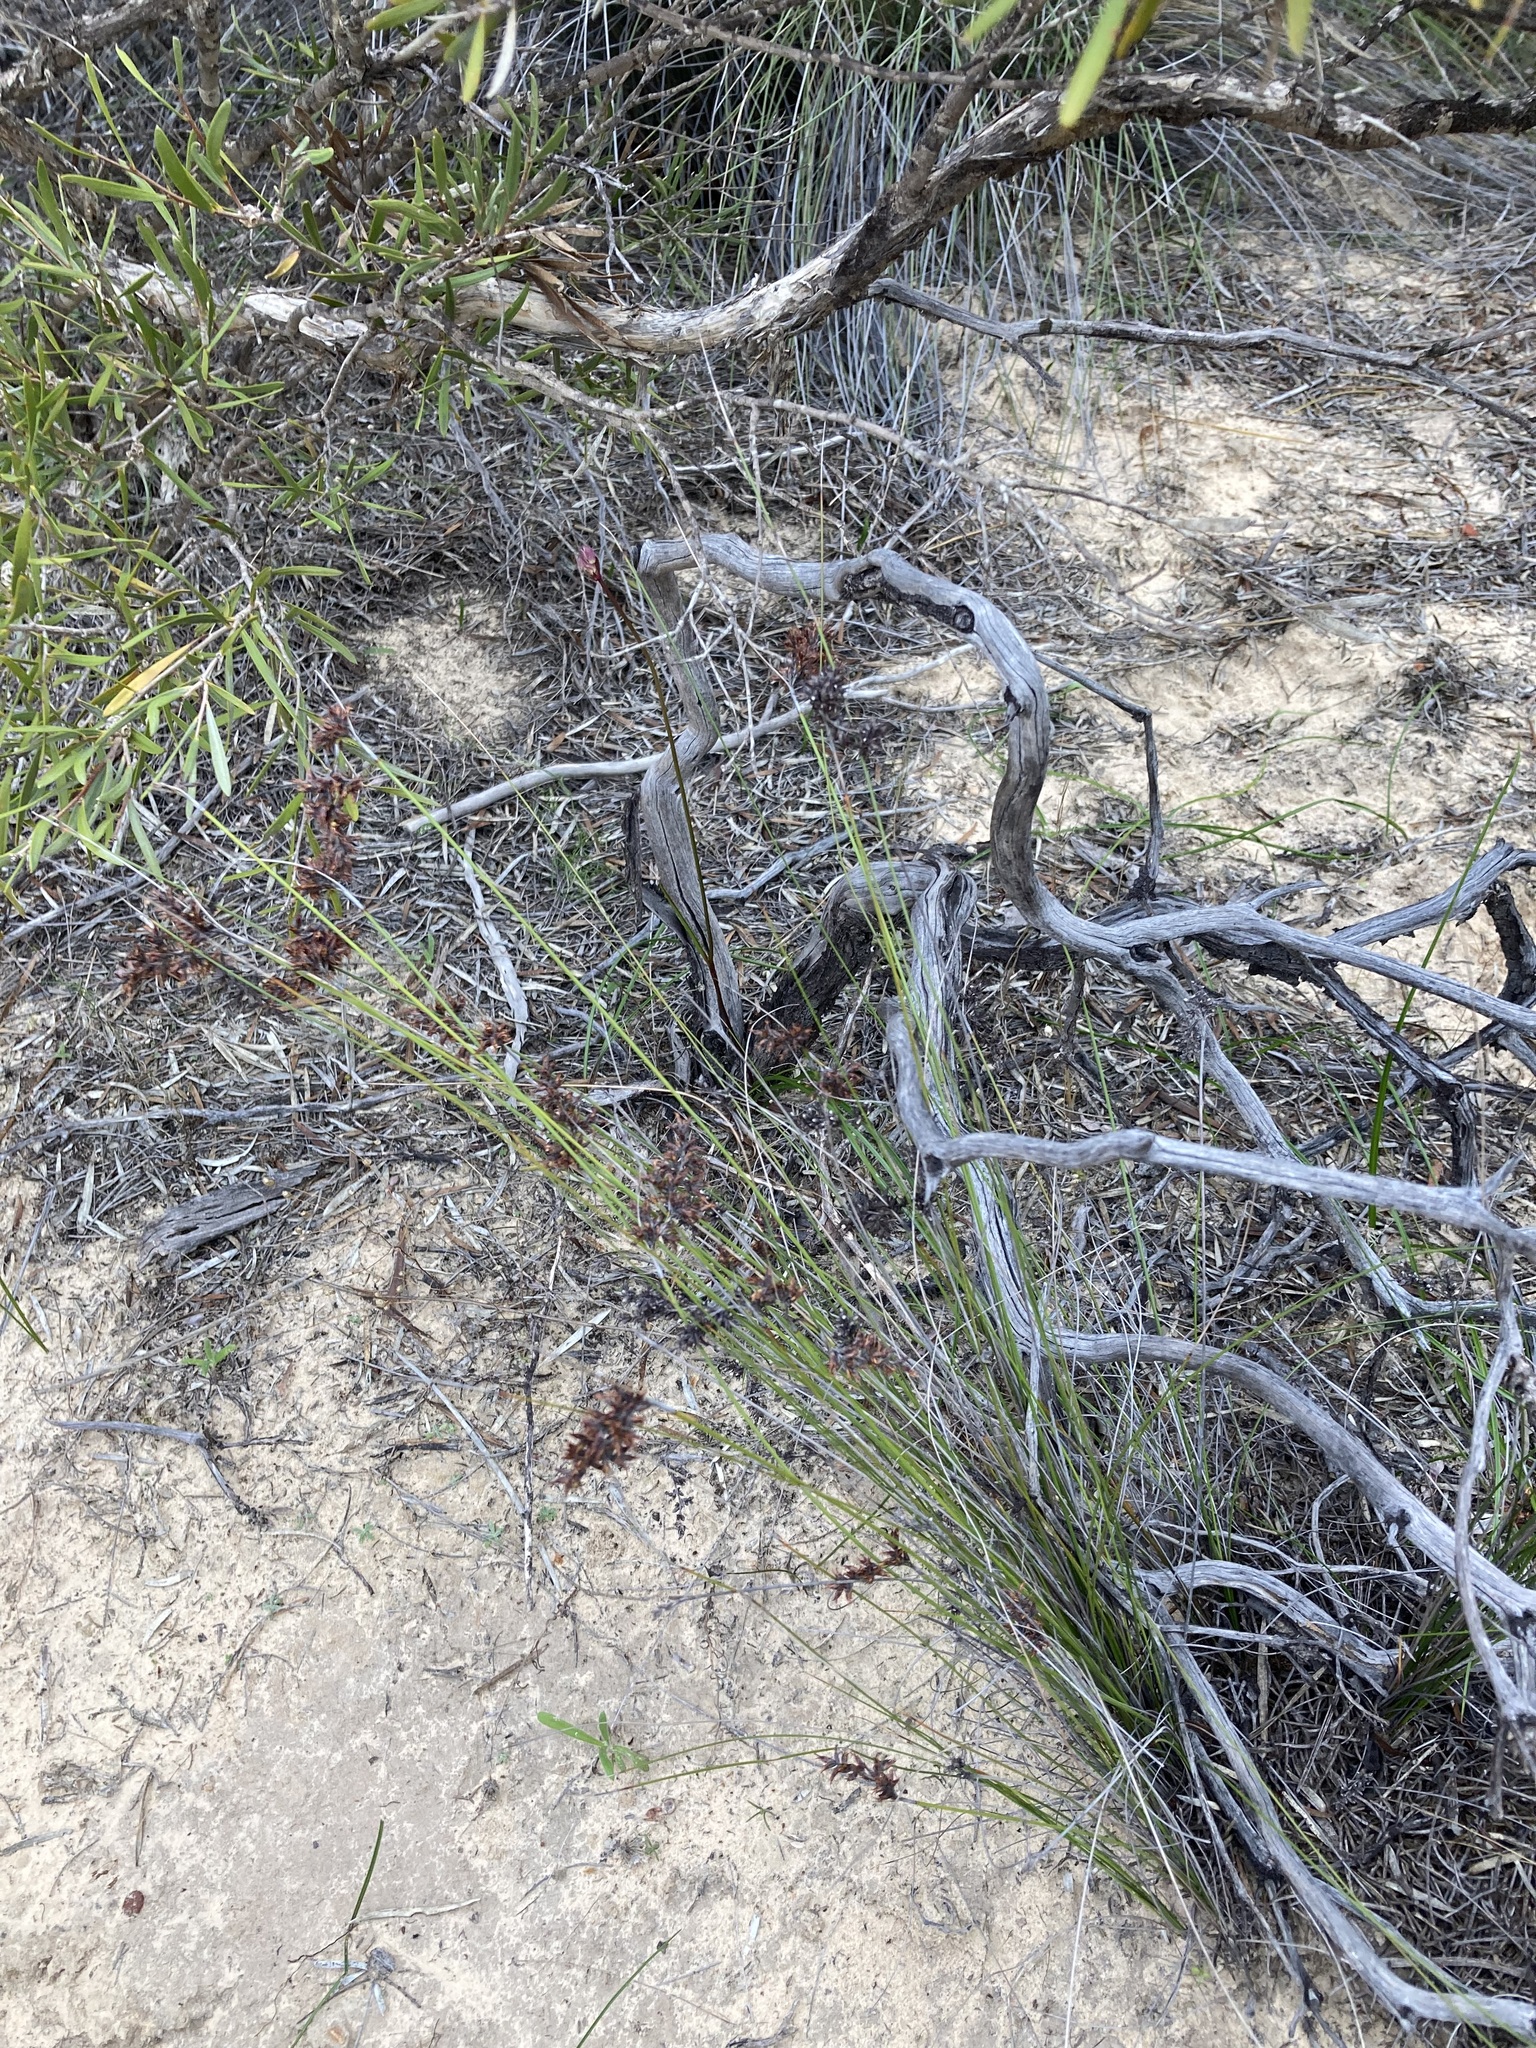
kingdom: Plantae
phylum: Tracheophyta
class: Liliopsida
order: Poales
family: Cyperaceae
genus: Lepidosperma
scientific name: Lepidosperma tenue
